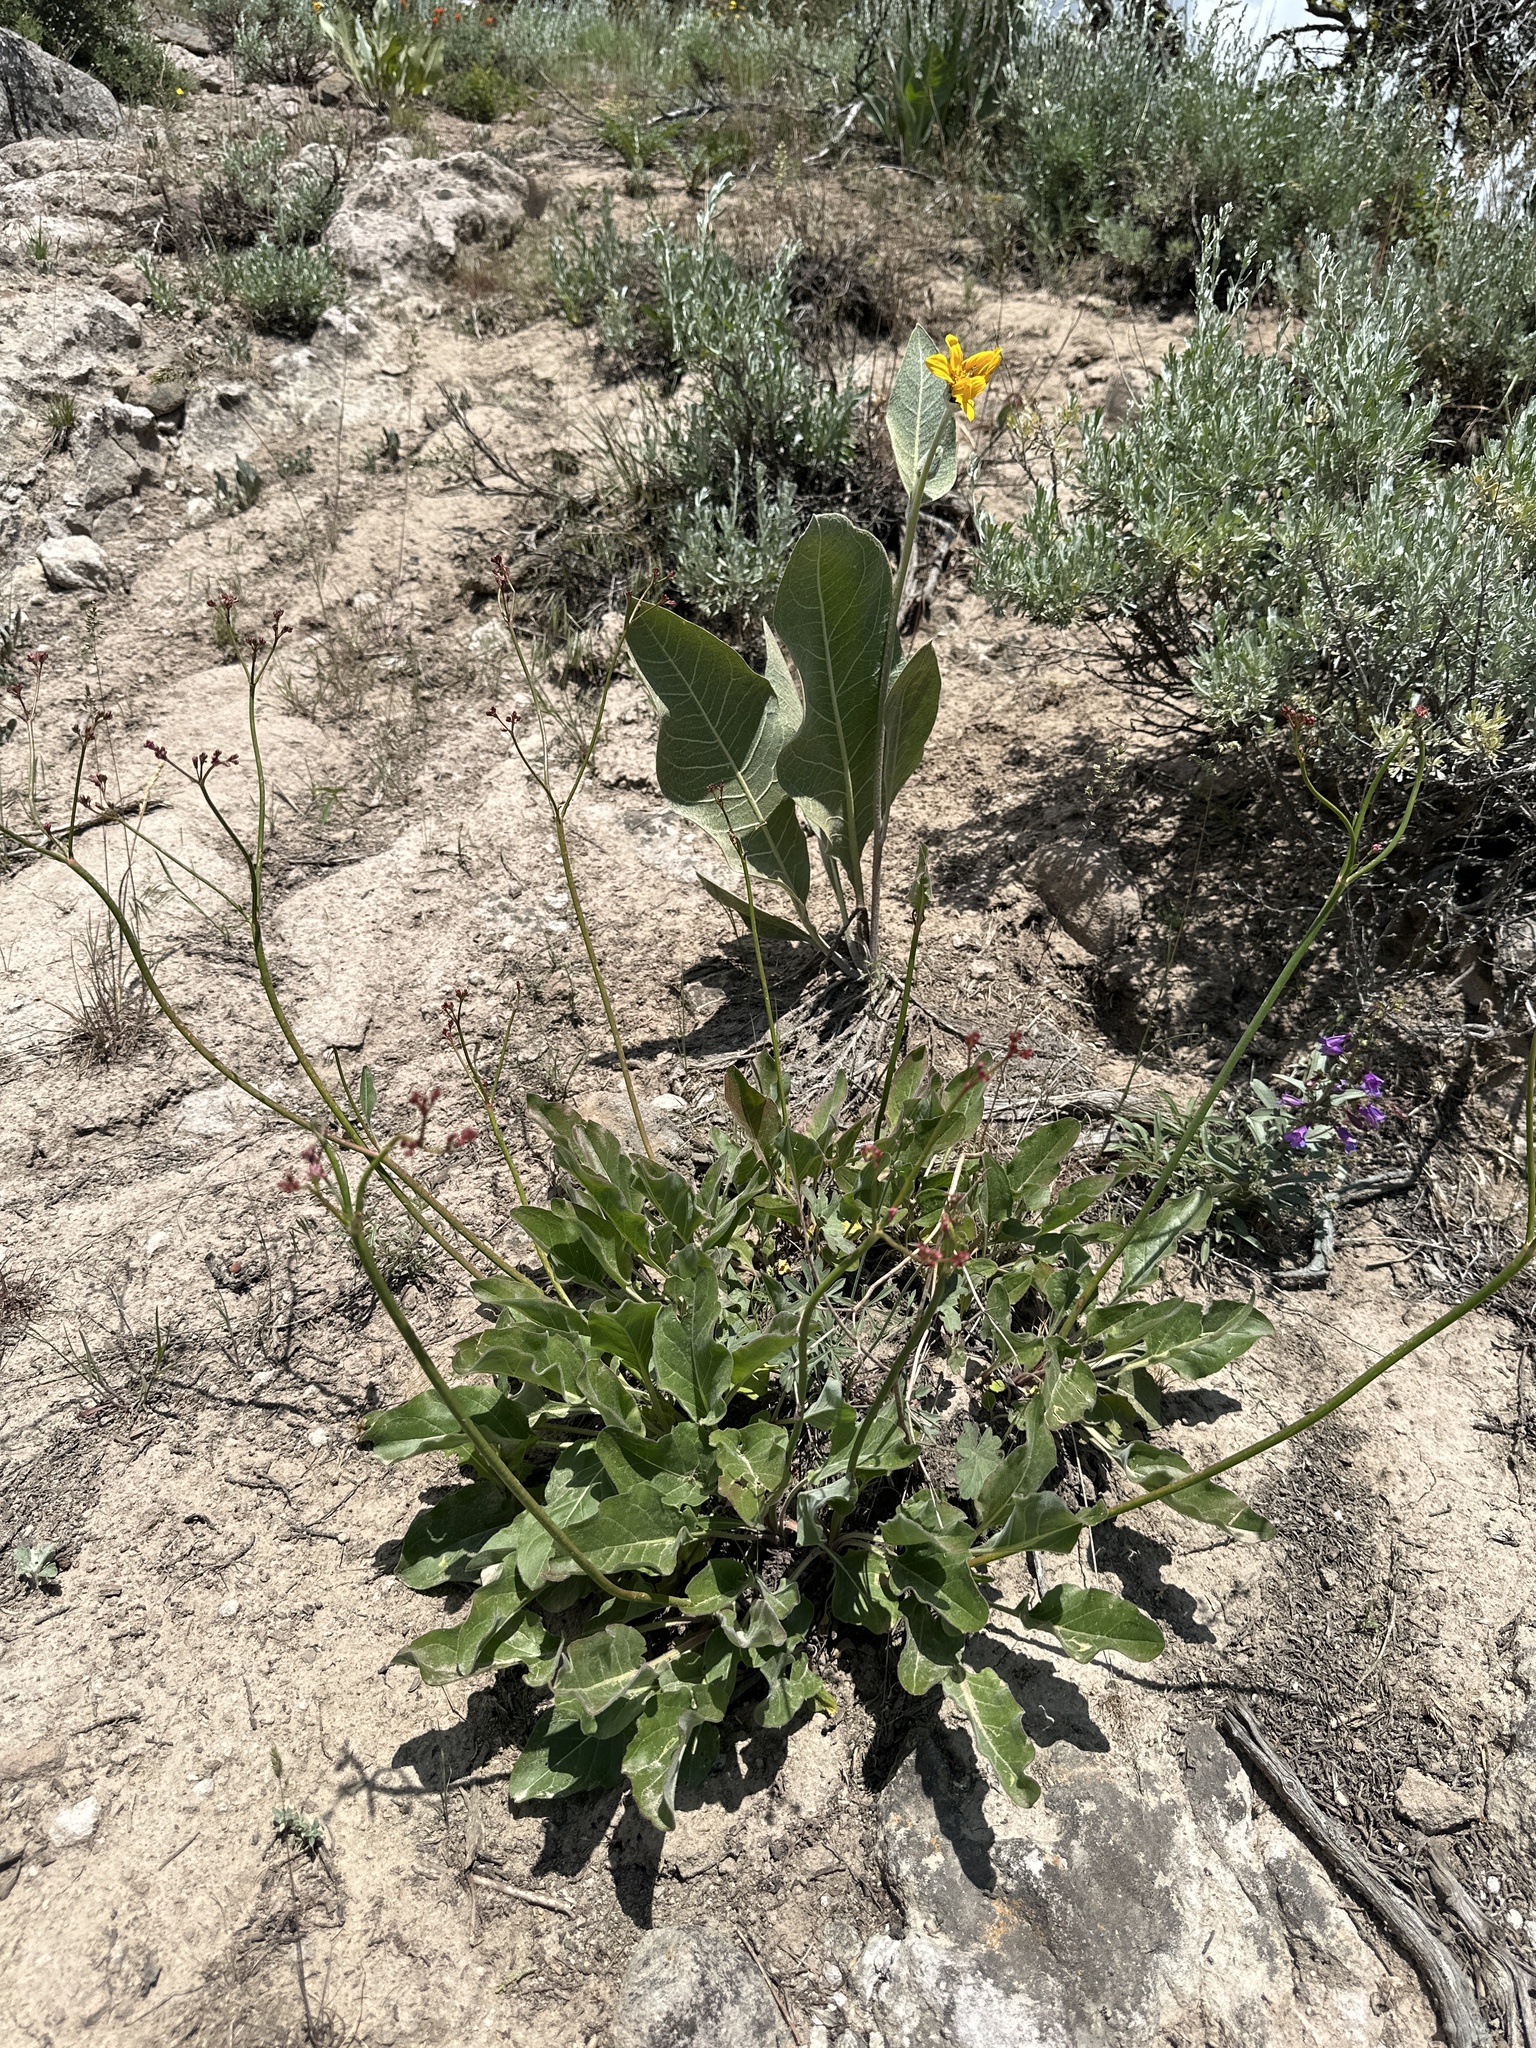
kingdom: Plantae
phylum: Tracheophyta
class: Magnoliopsida
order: Caryophyllales
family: Polygonaceae
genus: Eriogonum
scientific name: Eriogonum elatum
